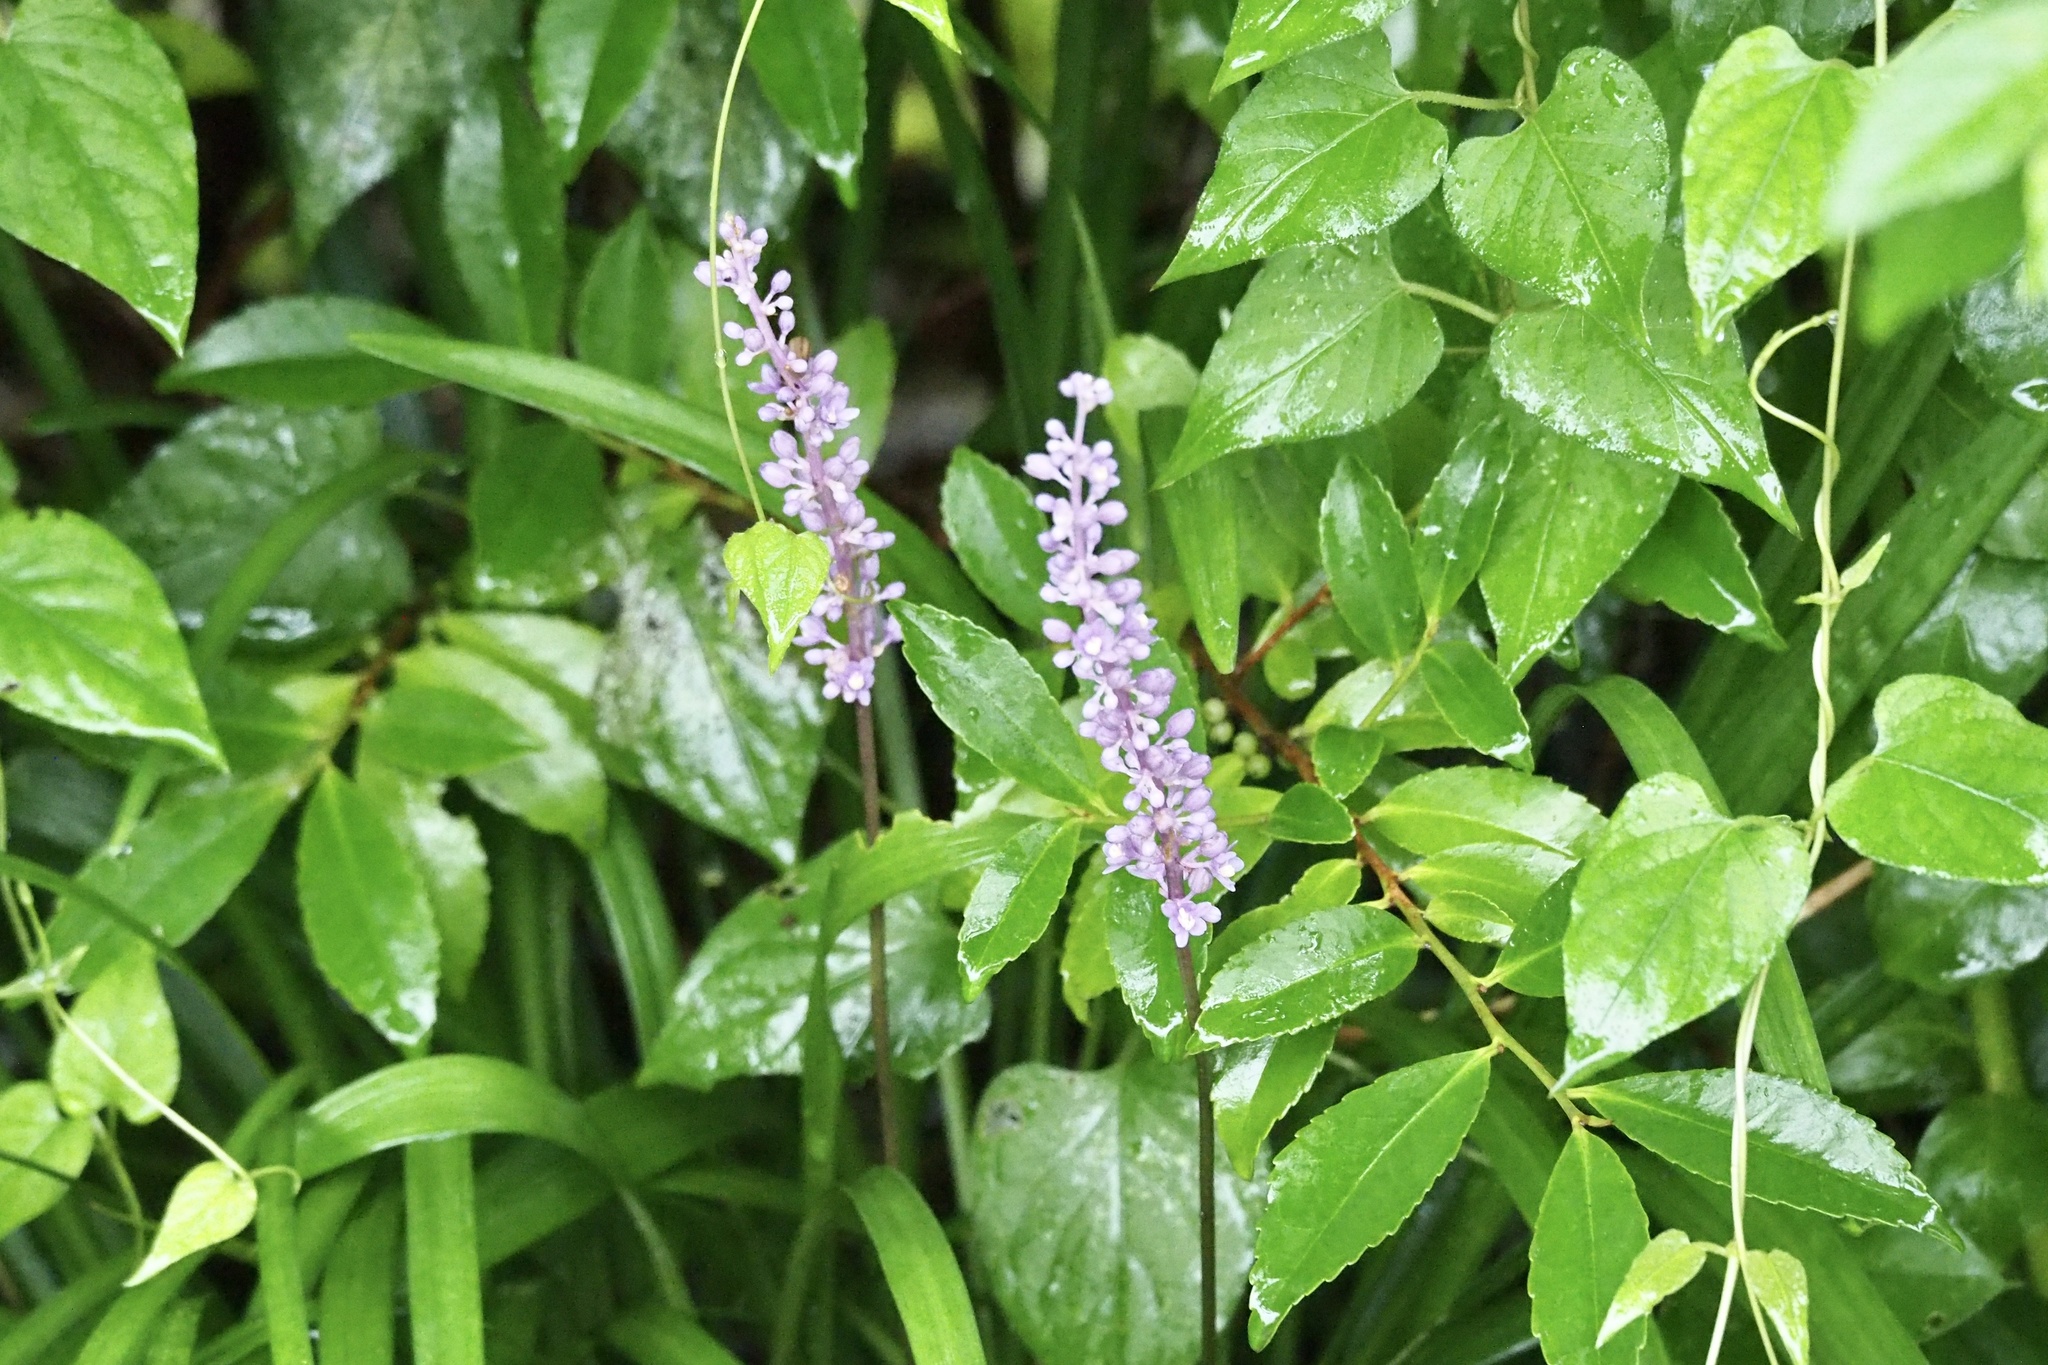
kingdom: Plantae
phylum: Tracheophyta
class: Liliopsida
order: Asparagales
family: Asparagaceae
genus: Liriope
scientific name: Liriope muscari
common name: Big blue lilyturf
